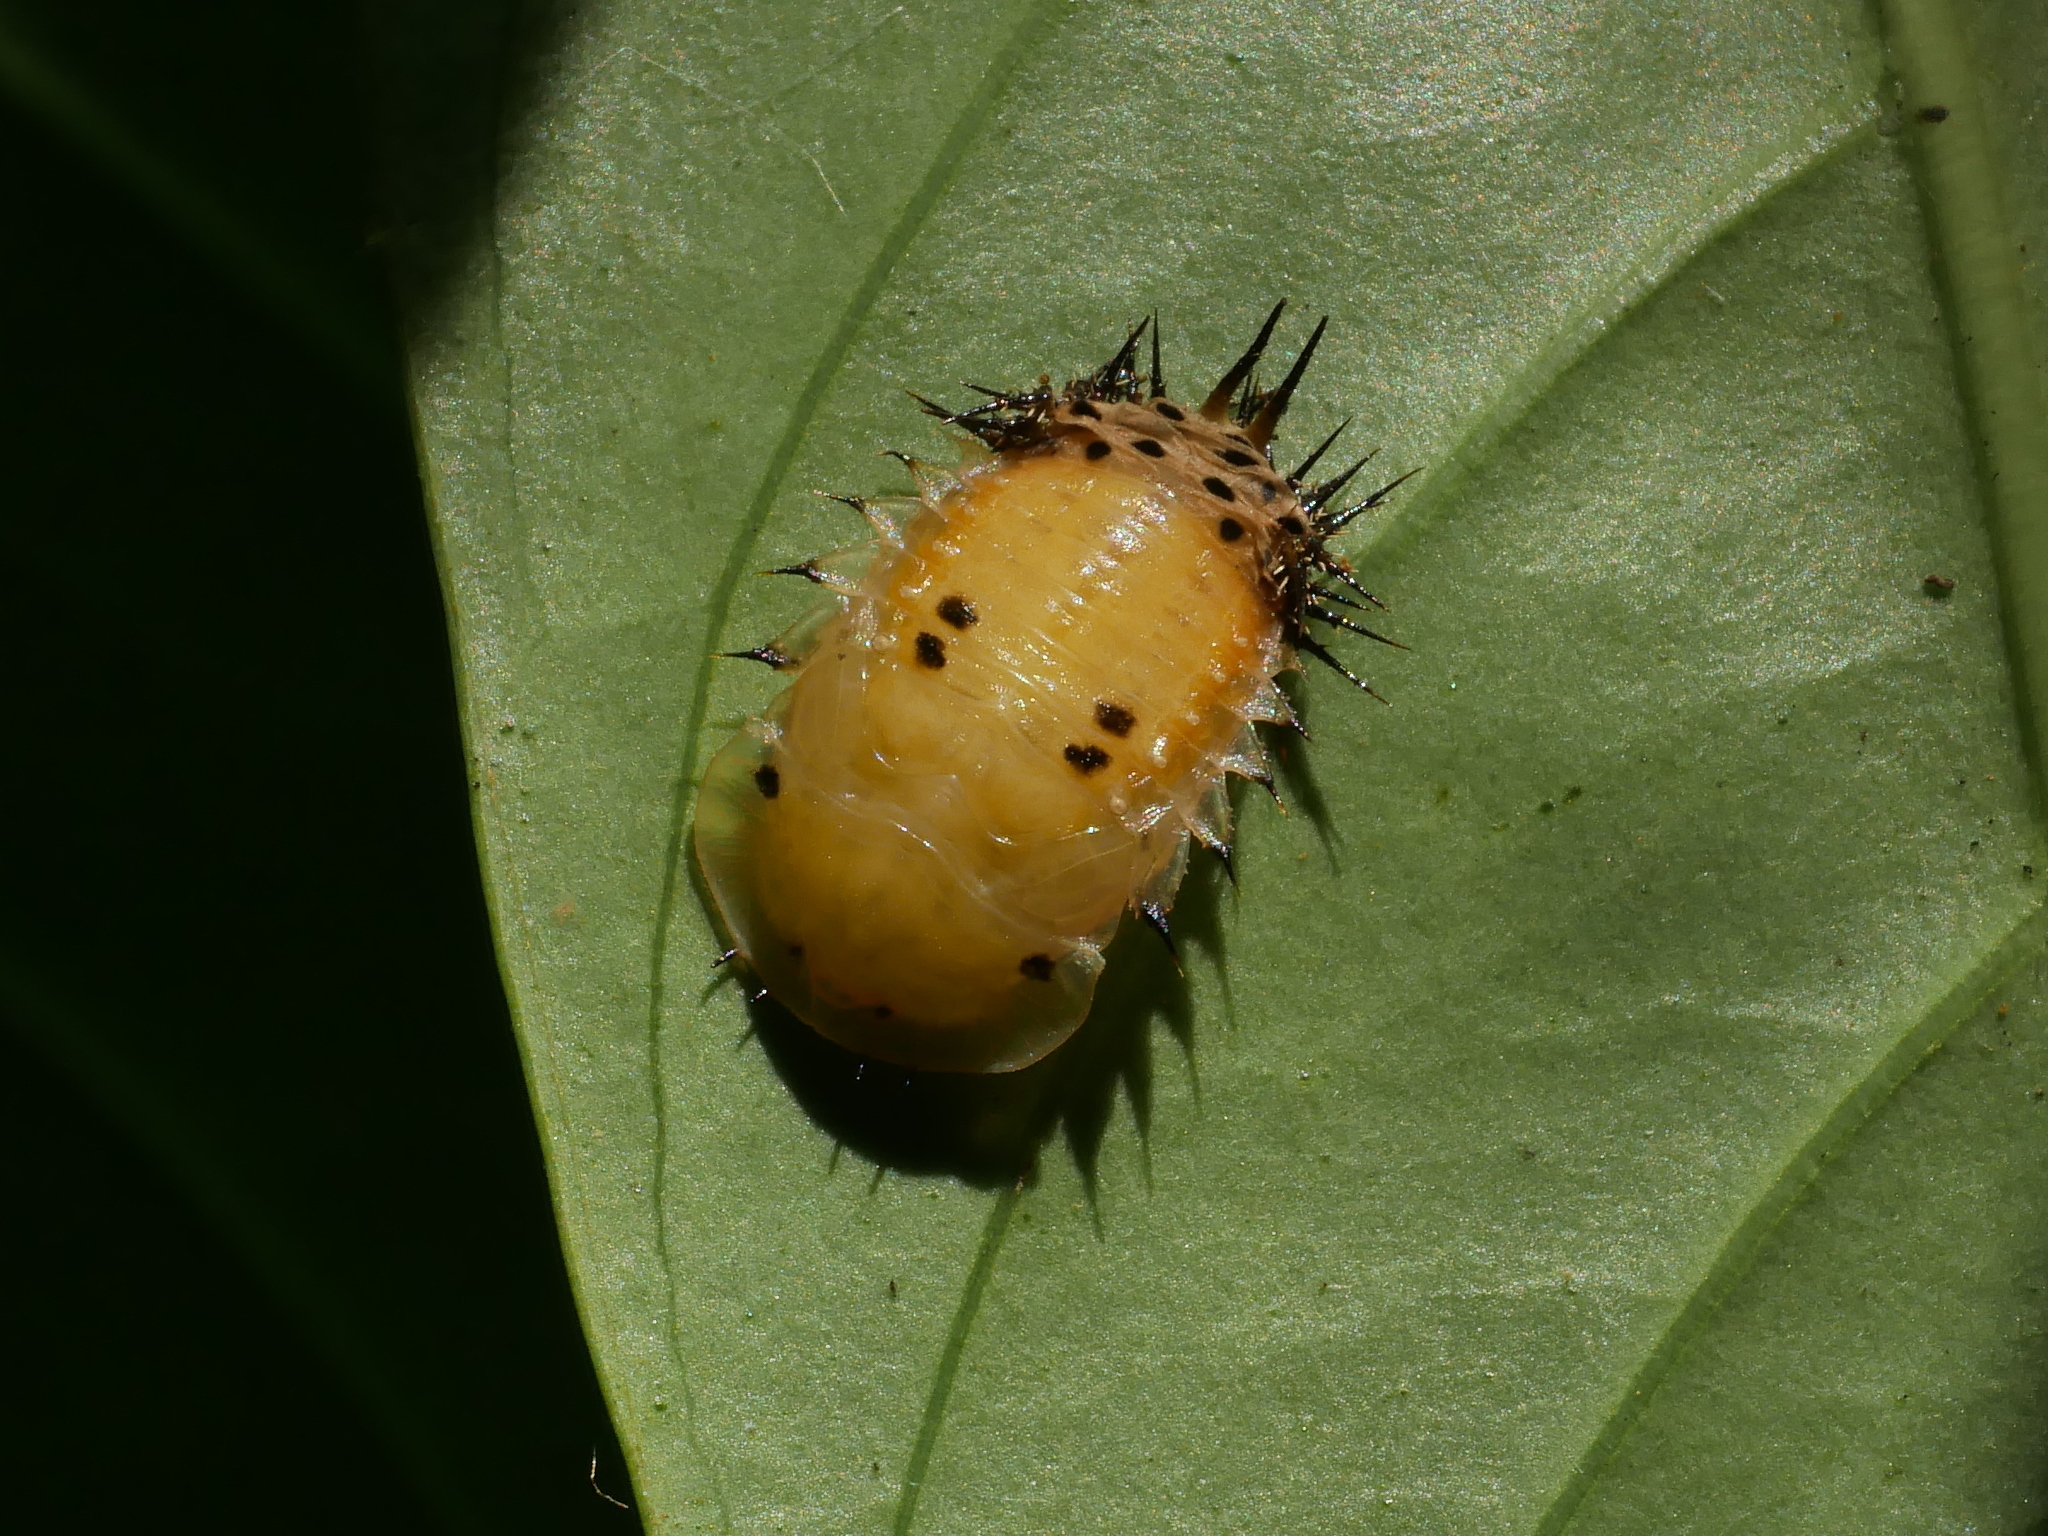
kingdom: Animalia
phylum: Arthropoda
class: Insecta
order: Coleoptera
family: Chrysomelidae
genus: Aspidimorpha
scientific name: Aspidimorpha miliaris
